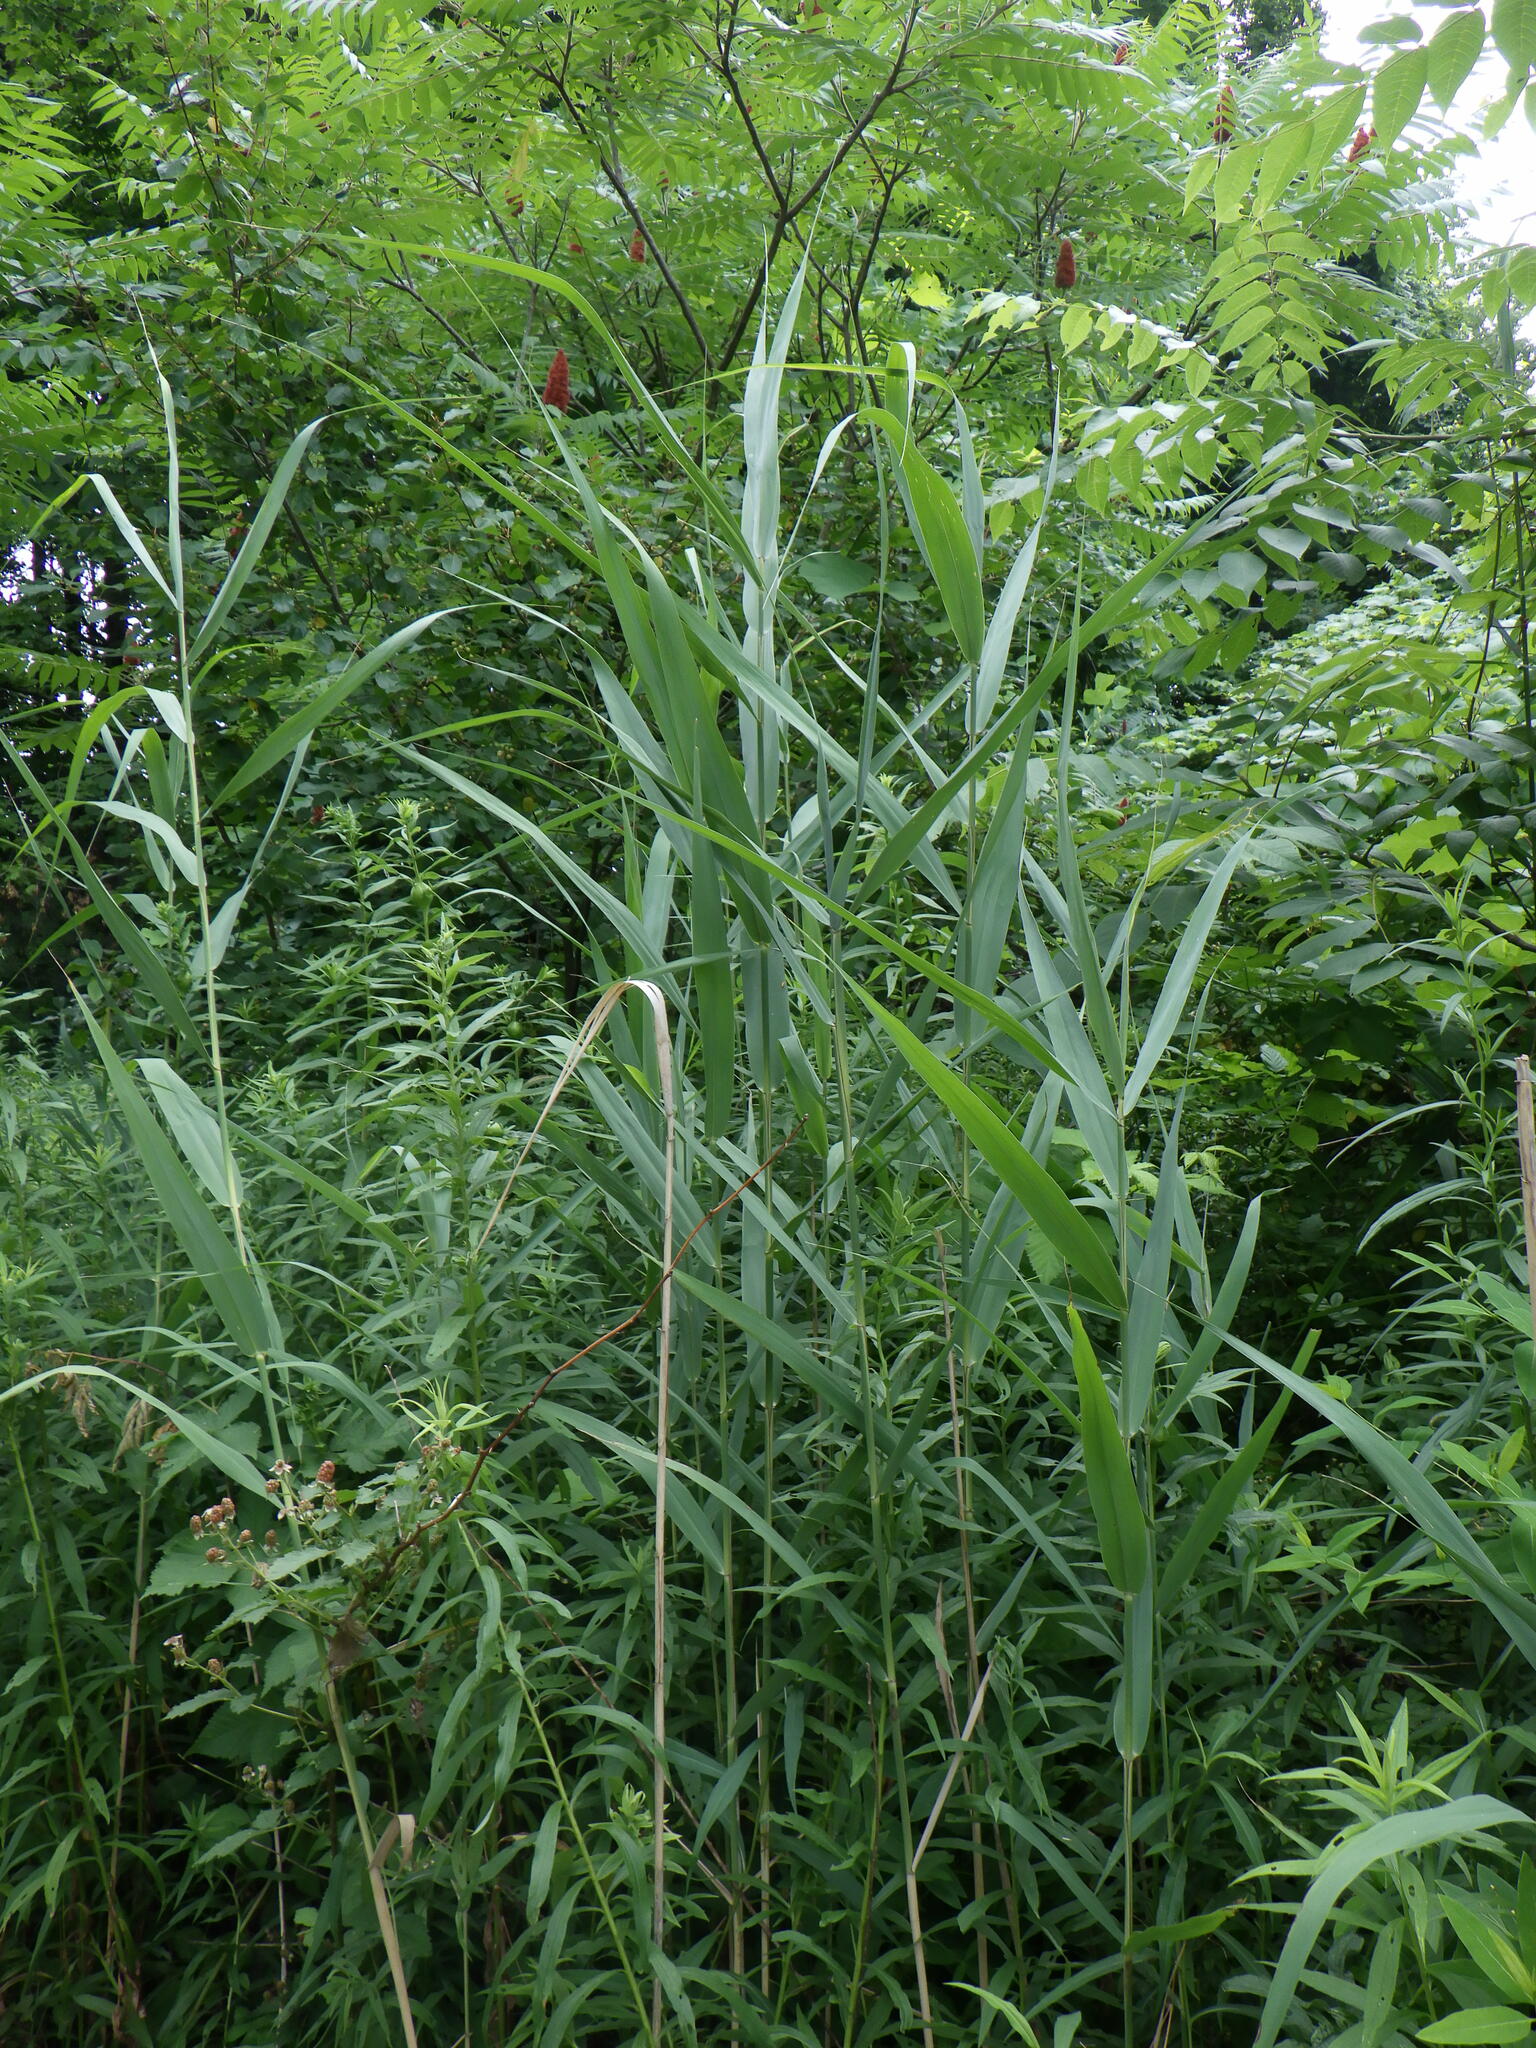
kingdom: Plantae
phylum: Tracheophyta
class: Liliopsida
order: Poales
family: Poaceae
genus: Phragmites
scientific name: Phragmites australis
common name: Common reed
